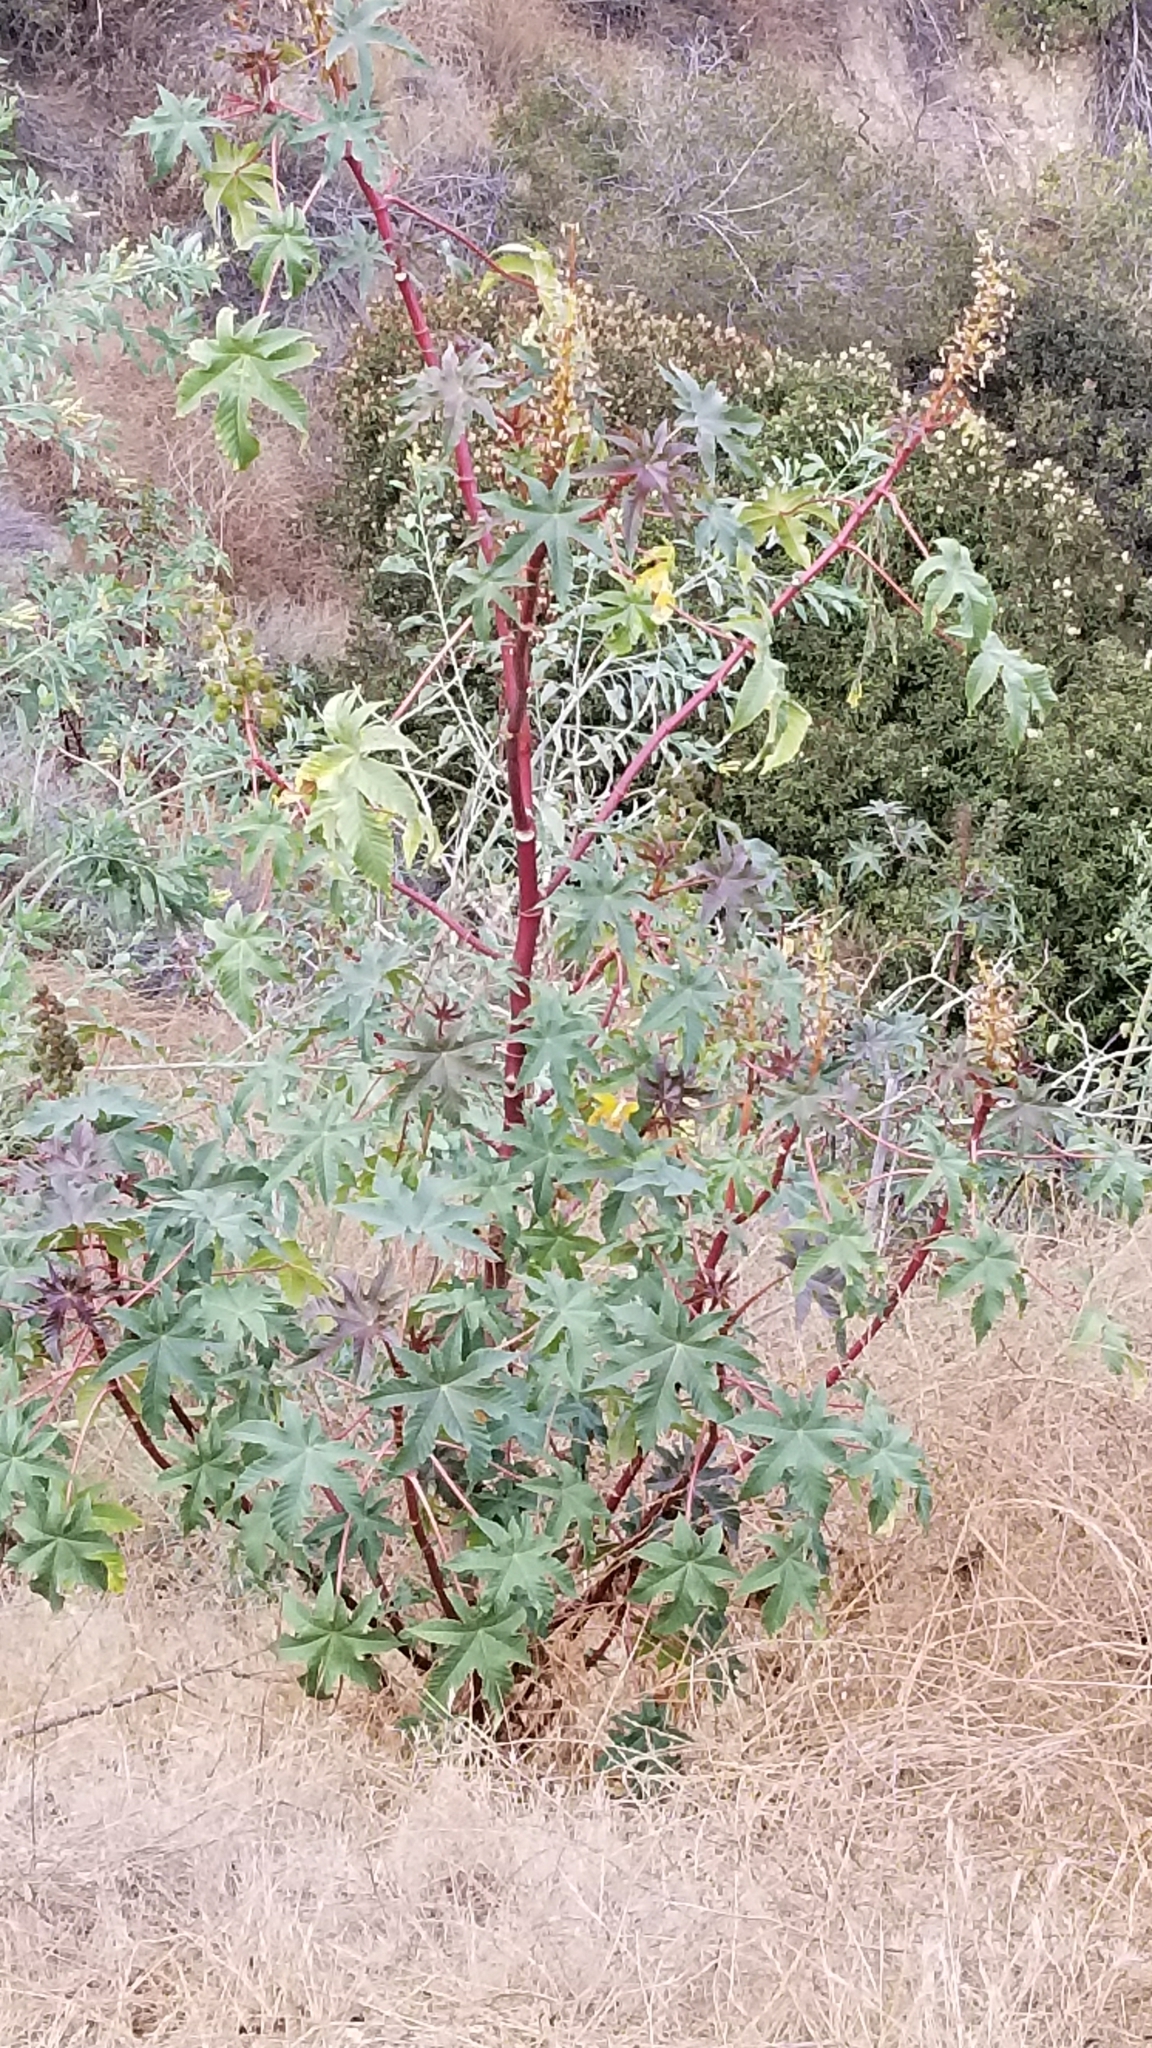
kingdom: Plantae
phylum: Tracheophyta
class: Magnoliopsida
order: Malpighiales
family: Euphorbiaceae
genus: Ricinus
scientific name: Ricinus communis
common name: Castor-oil-plant
